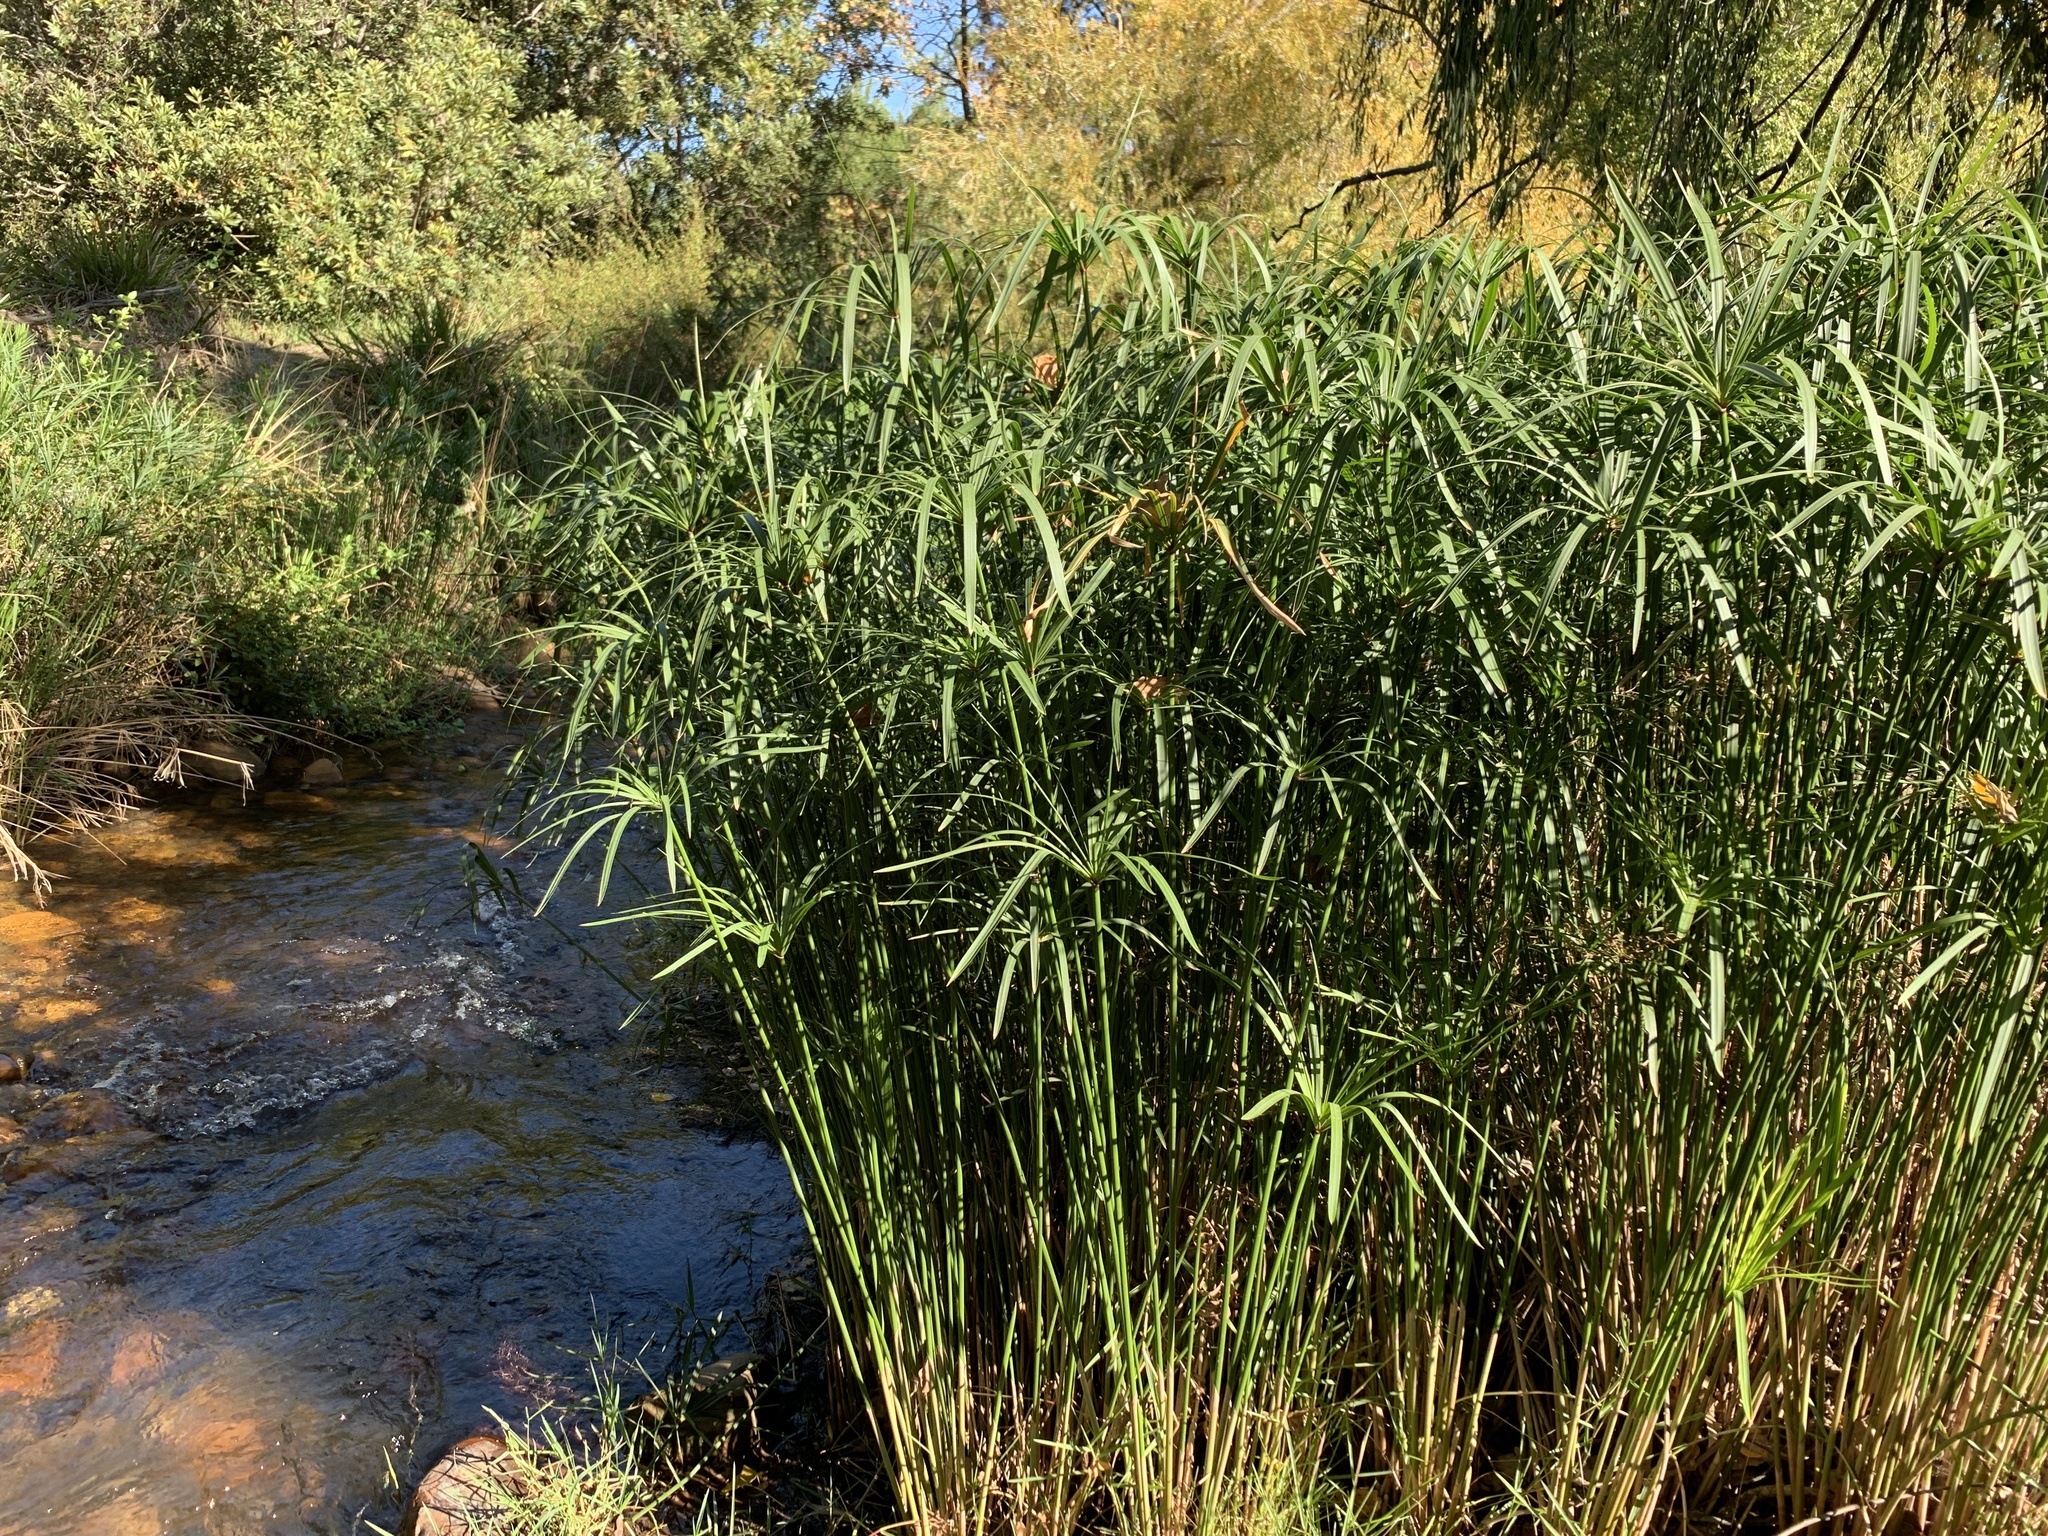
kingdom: Plantae
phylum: Tracheophyta
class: Liliopsida
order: Poales
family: Cyperaceae
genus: Cyperus
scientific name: Cyperus textilis
